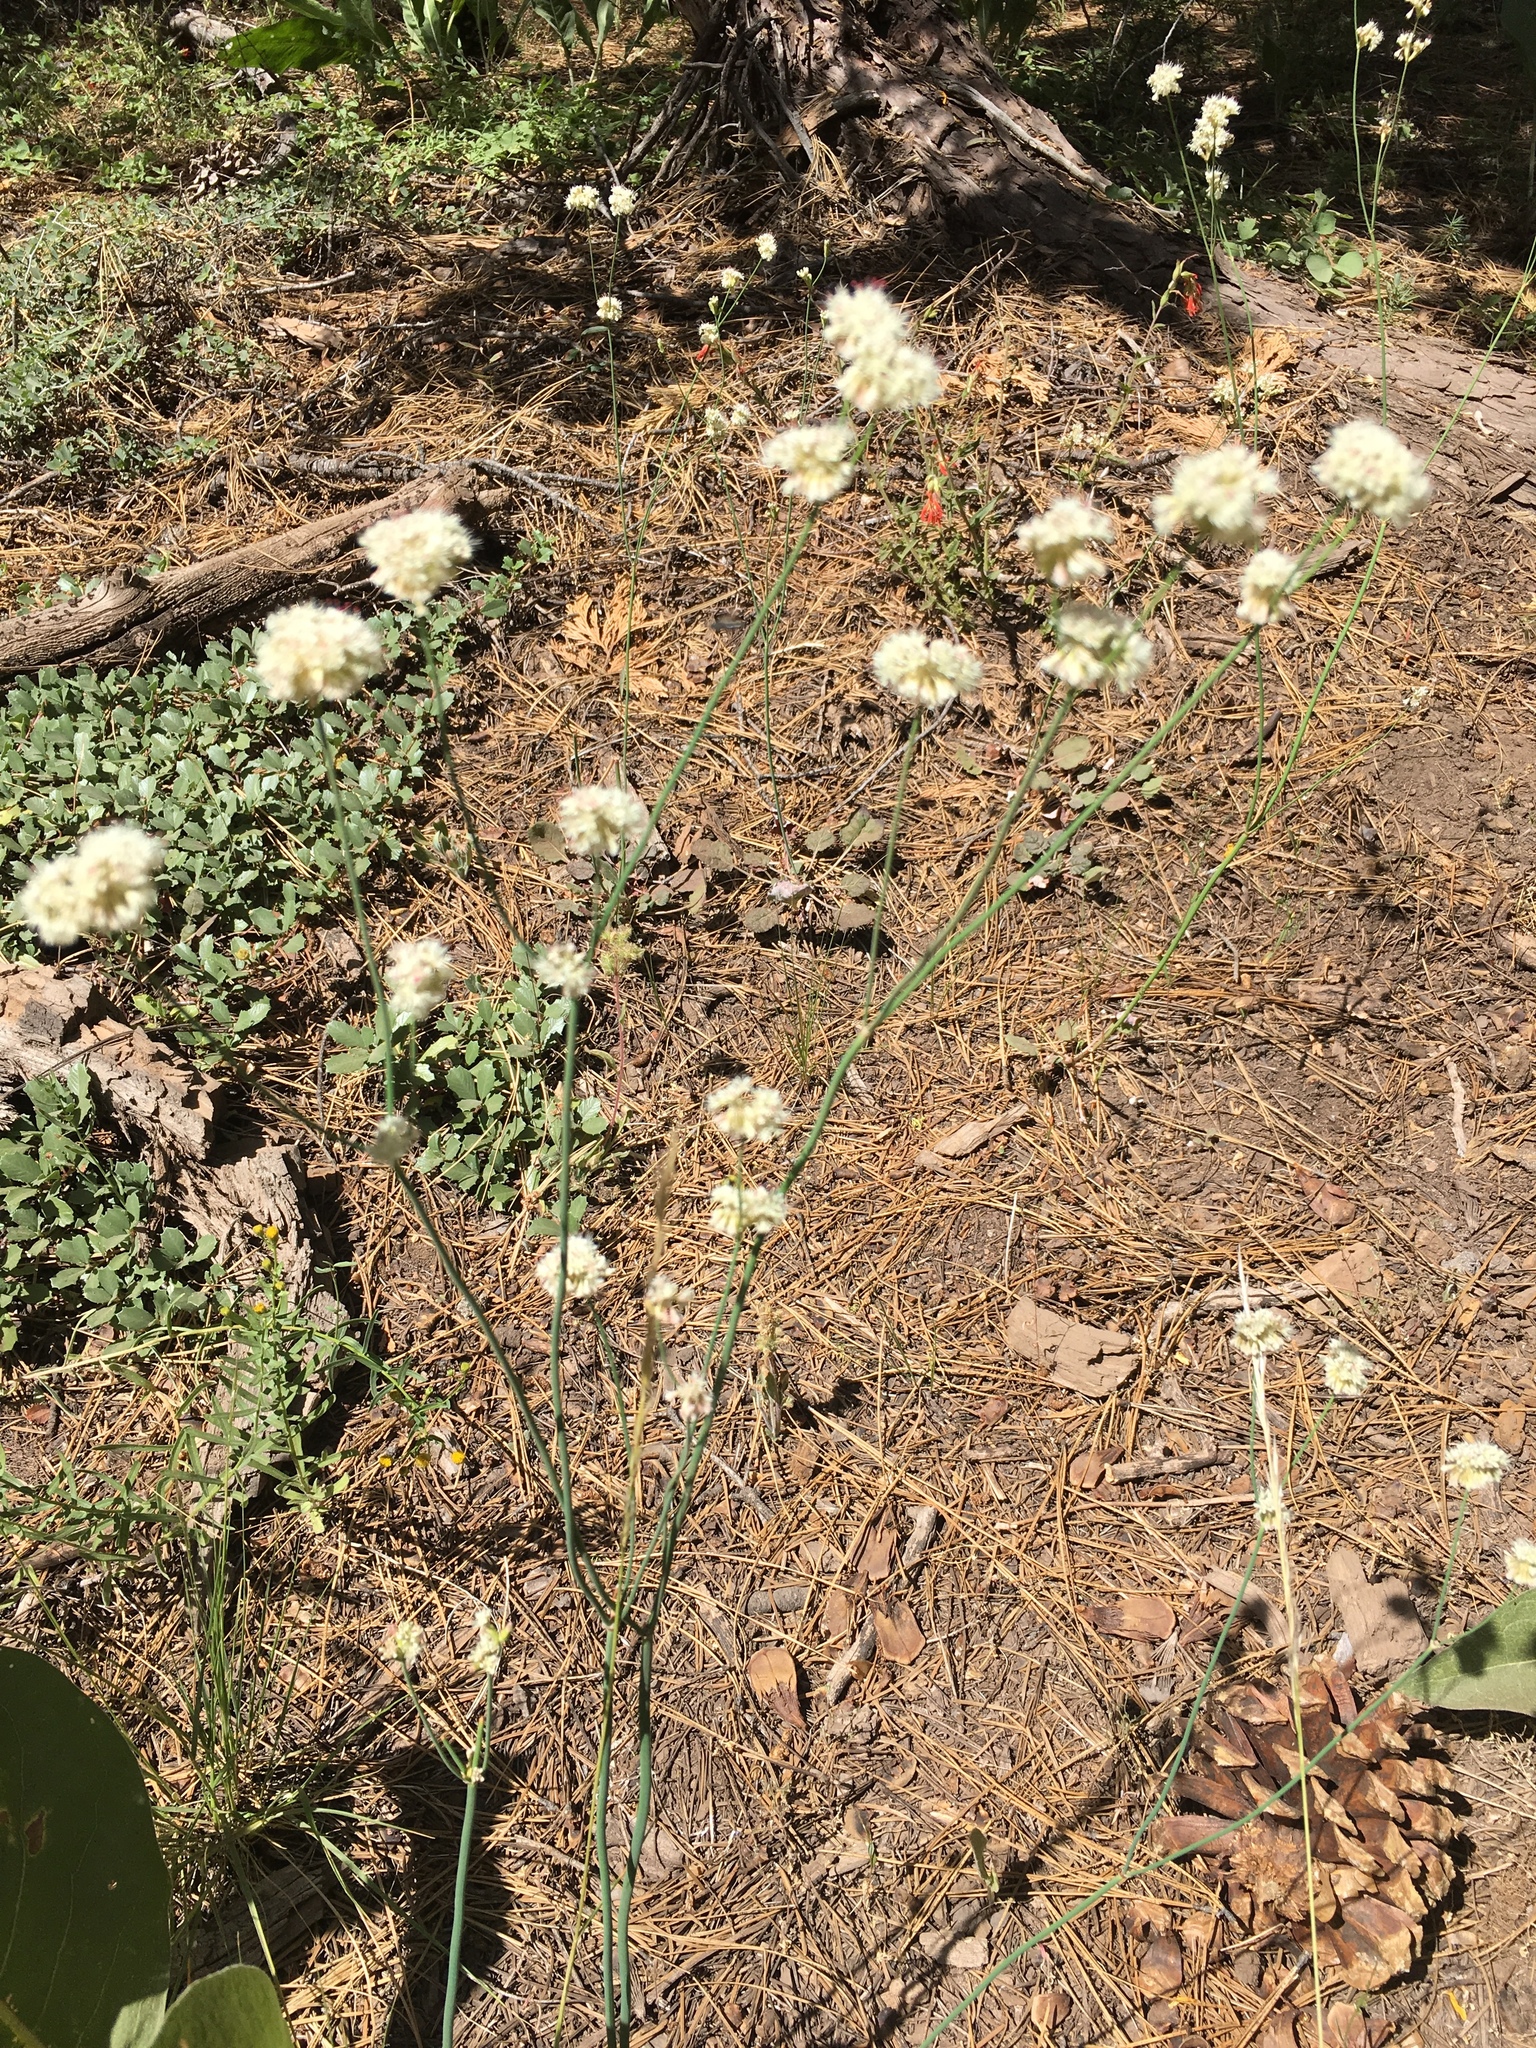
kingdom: Plantae
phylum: Tracheophyta
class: Magnoliopsida
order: Caryophyllales
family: Polygonaceae
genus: Eriogonum
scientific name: Eriogonum nudum
